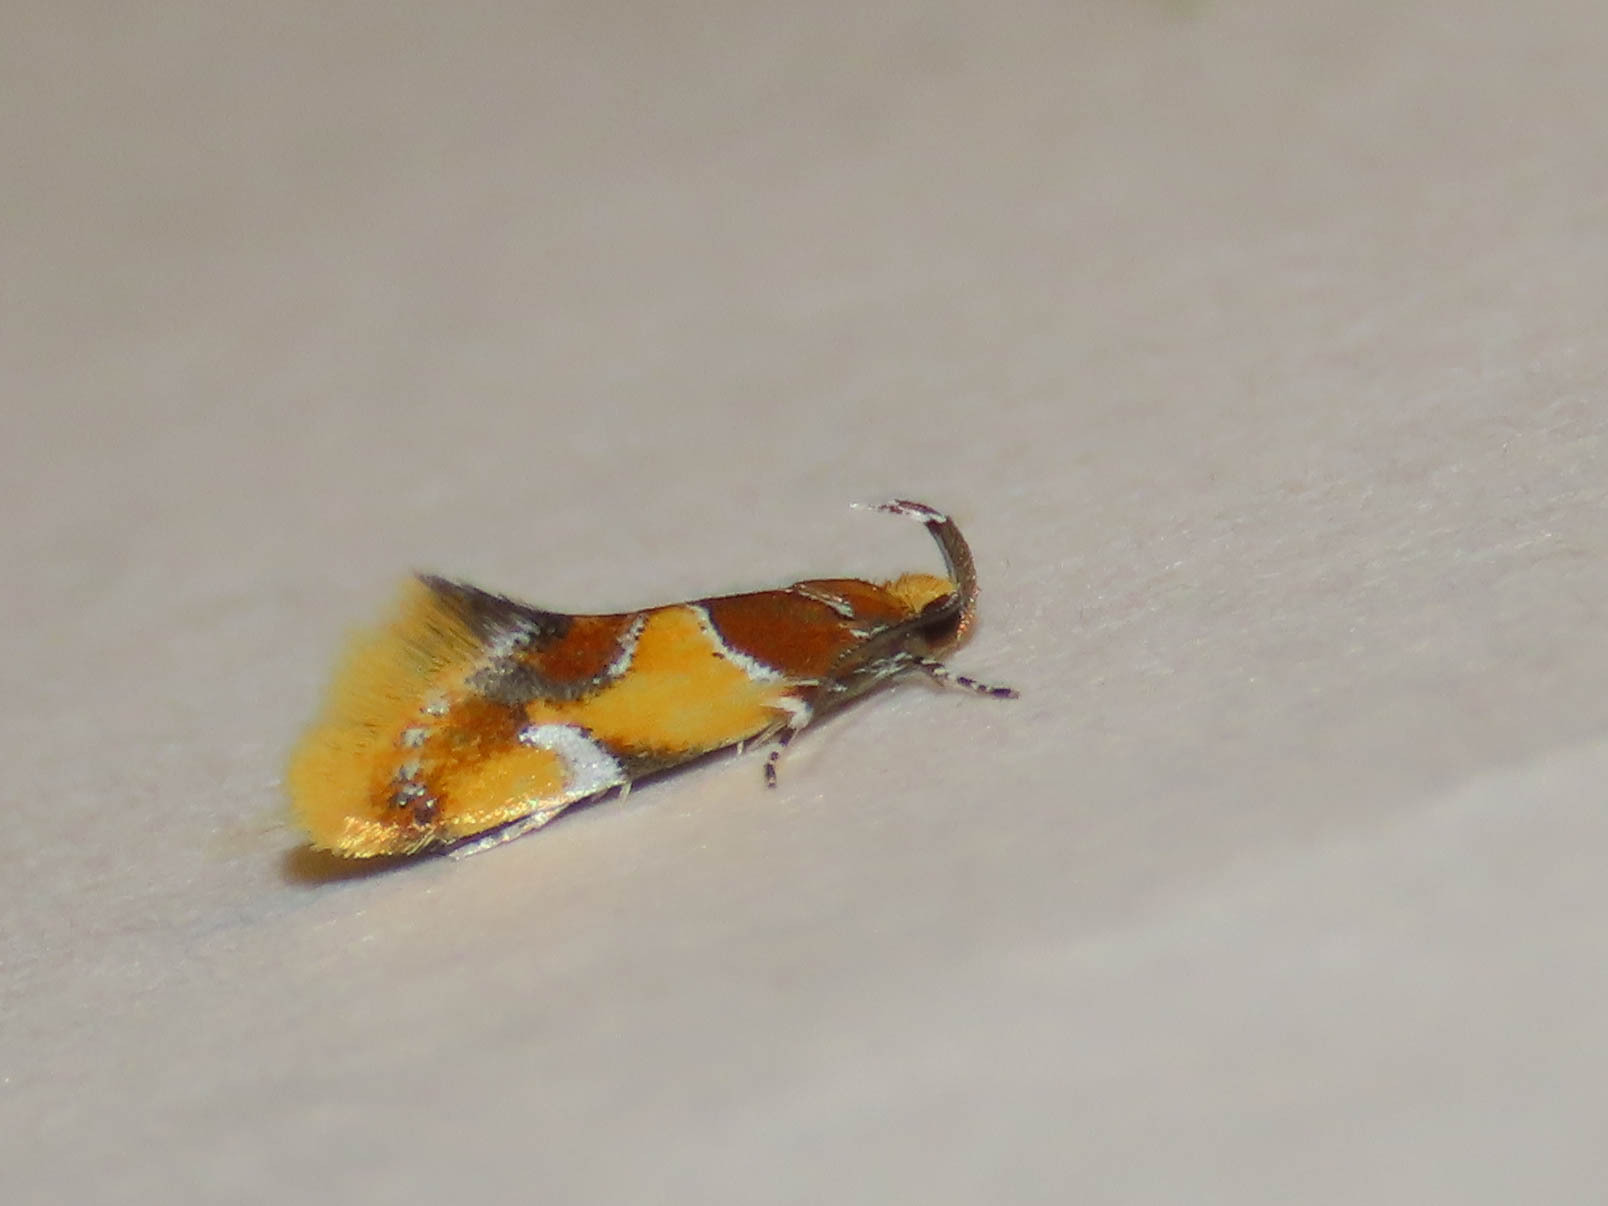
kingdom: Animalia
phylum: Arthropoda
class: Insecta
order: Lepidoptera
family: Oecophoridae
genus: Callima
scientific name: Callima argenticinctella
